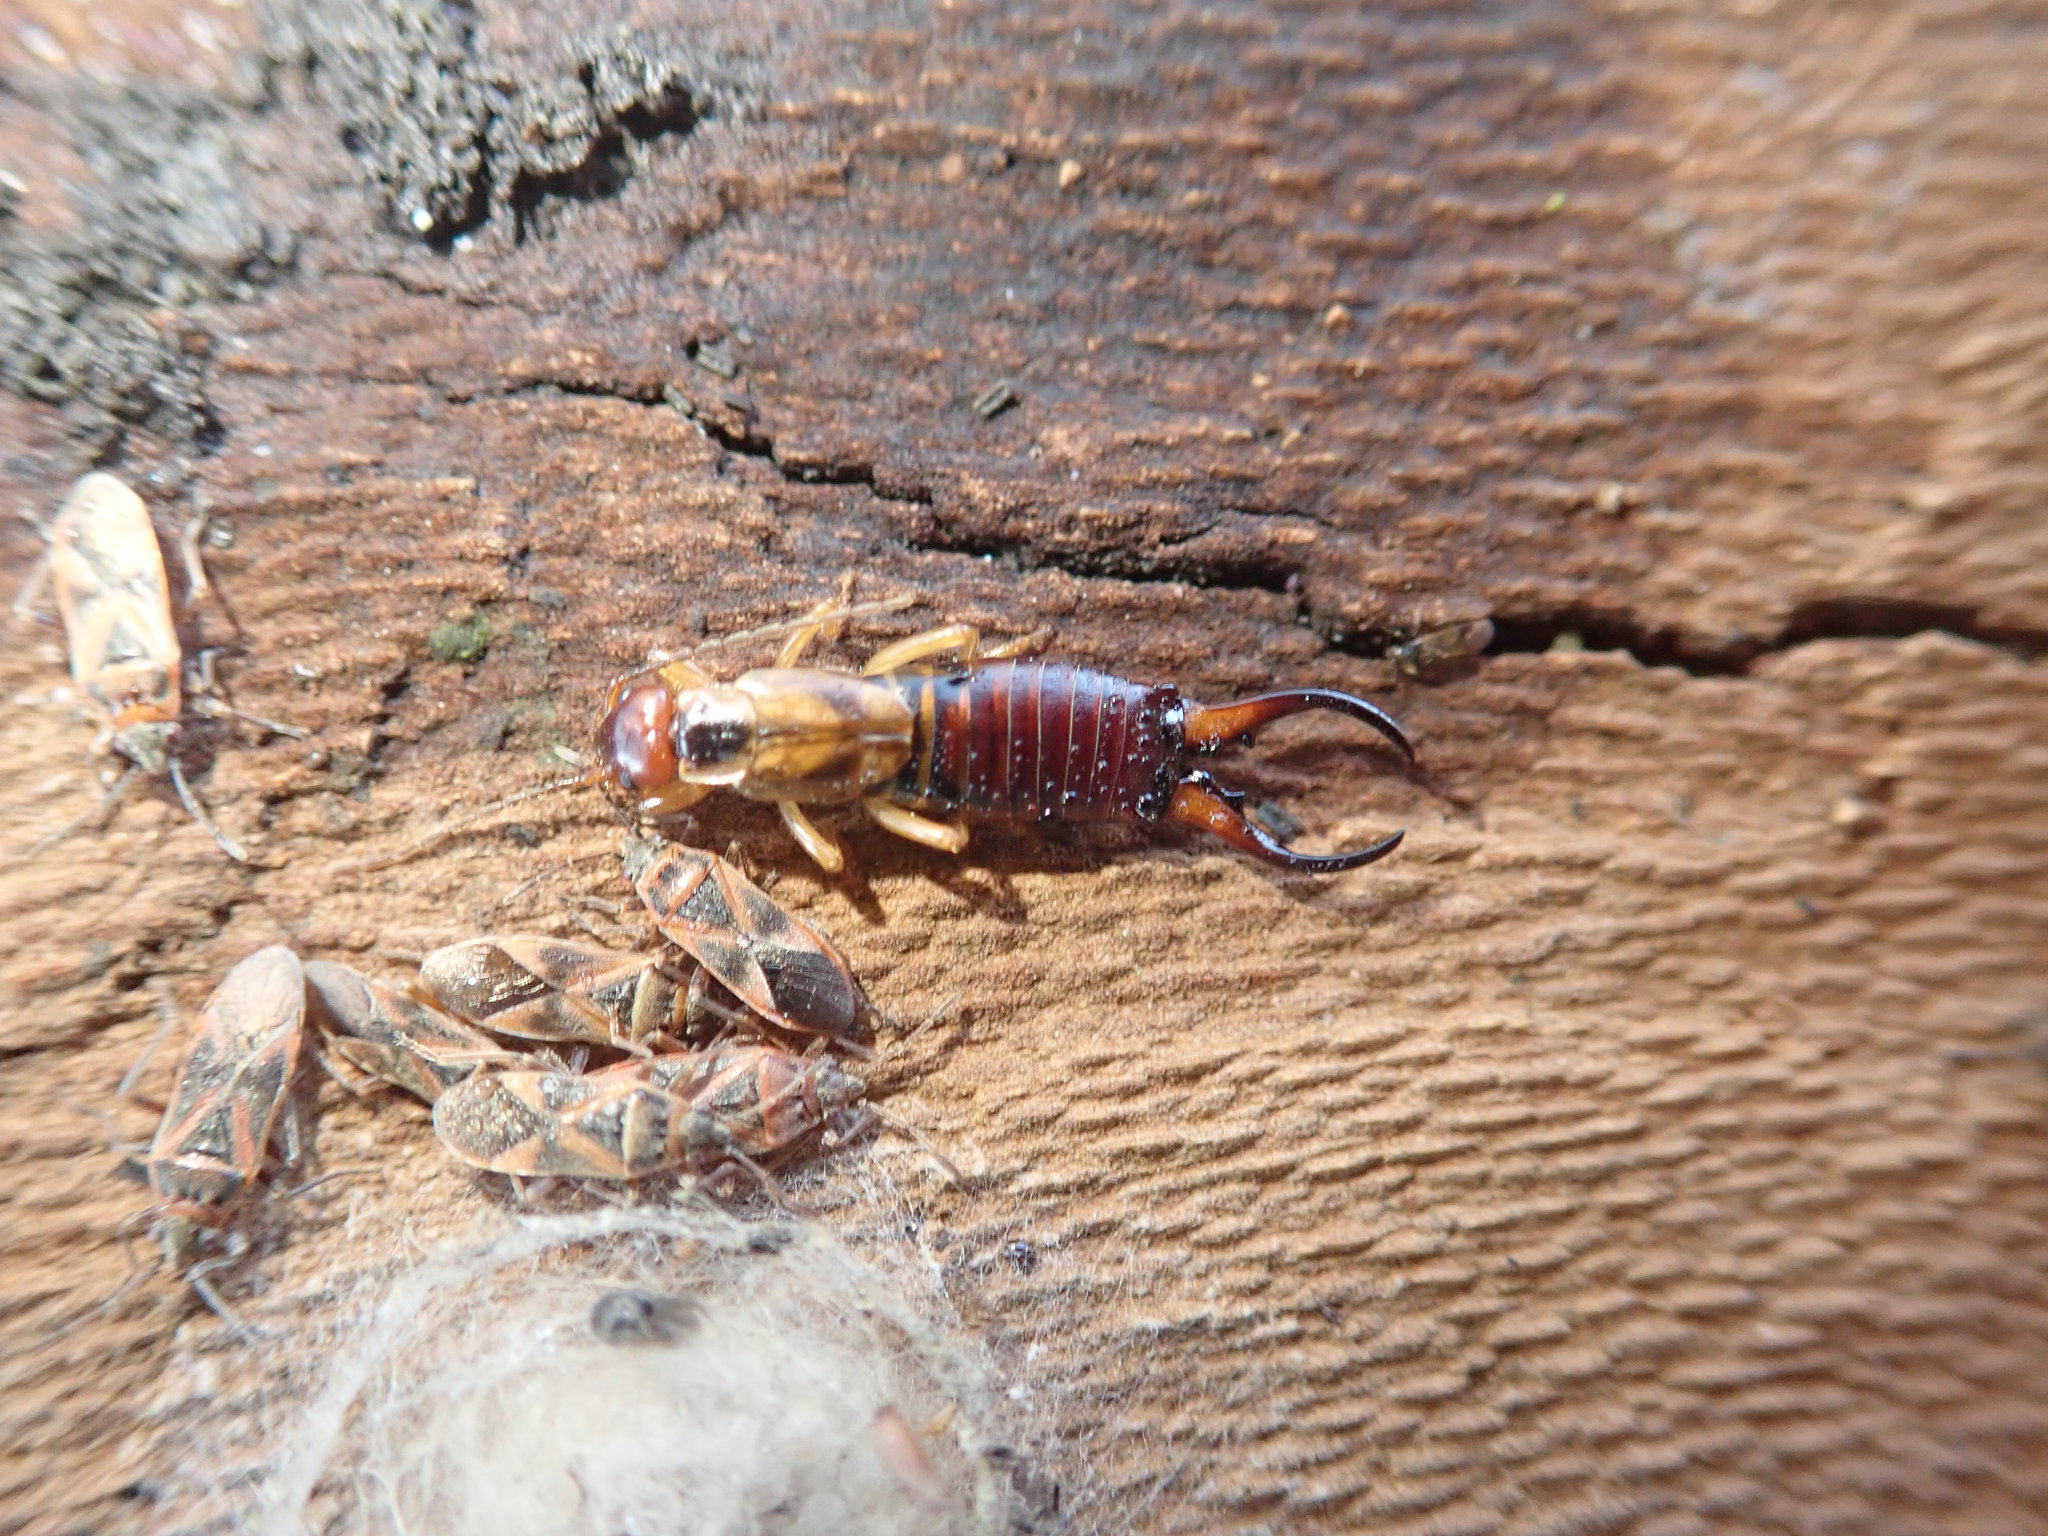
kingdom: Animalia
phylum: Arthropoda
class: Insecta
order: Dermaptera
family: Forficulidae
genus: Forficula
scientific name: Forficula
